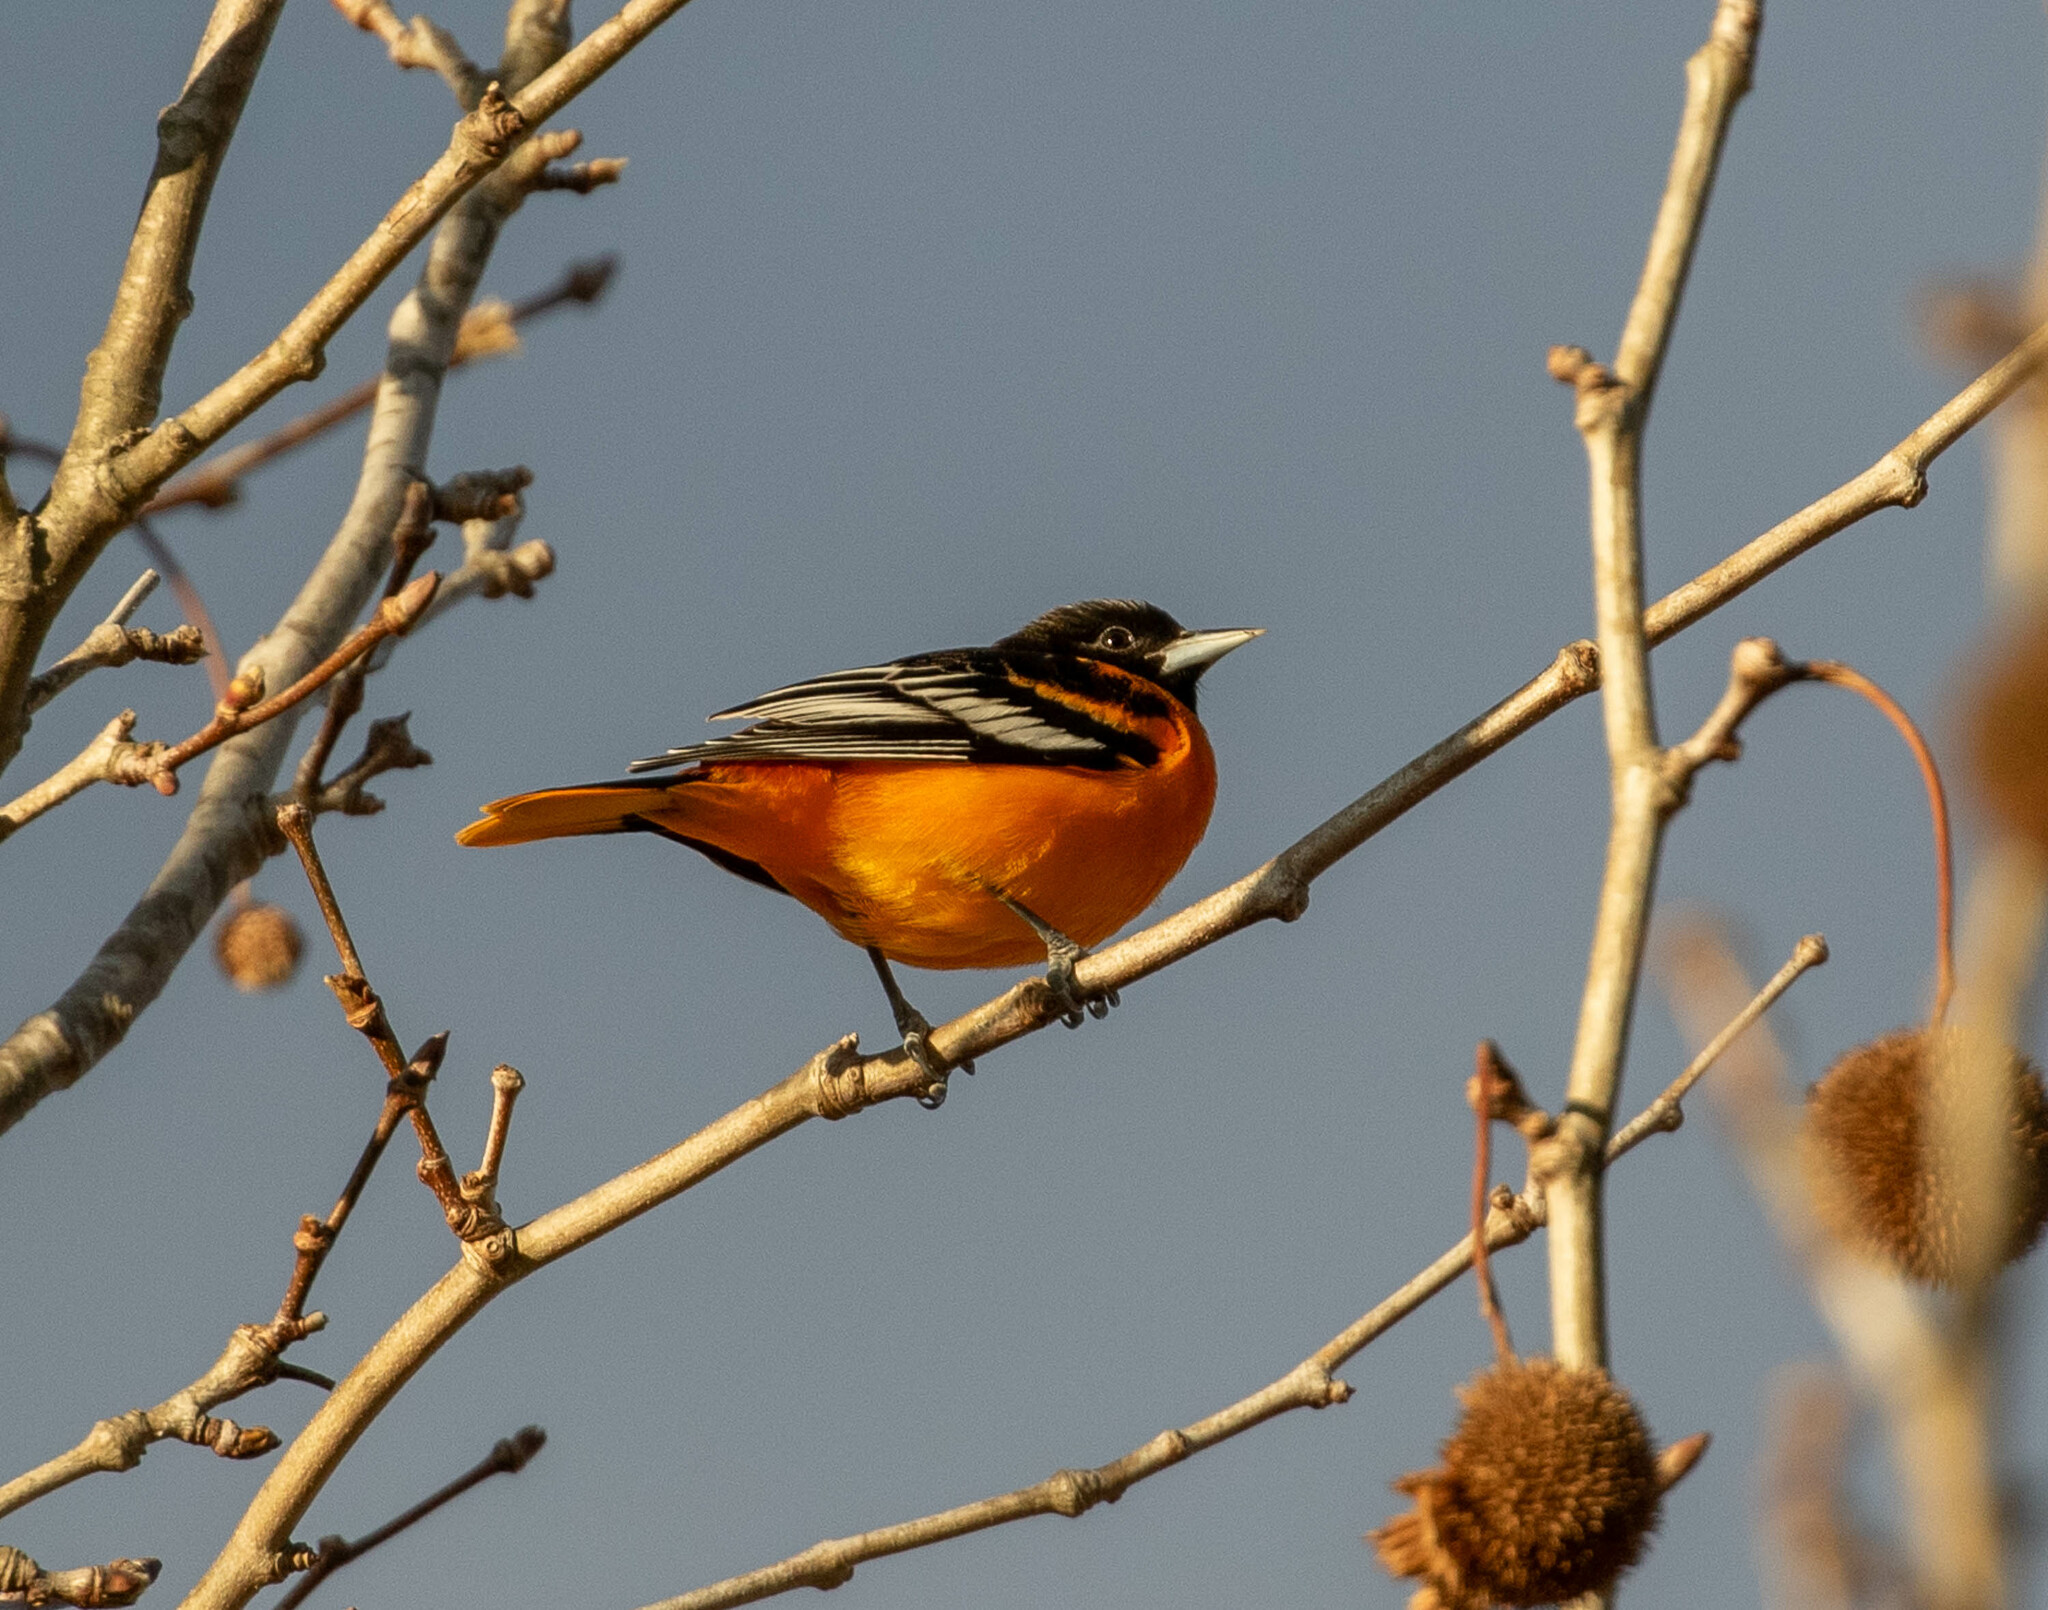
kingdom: Animalia
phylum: Chordata
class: Aves
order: Passeriformes
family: Icteridae
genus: Icterus
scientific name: Icterus galbula
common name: Baltimore oriole
